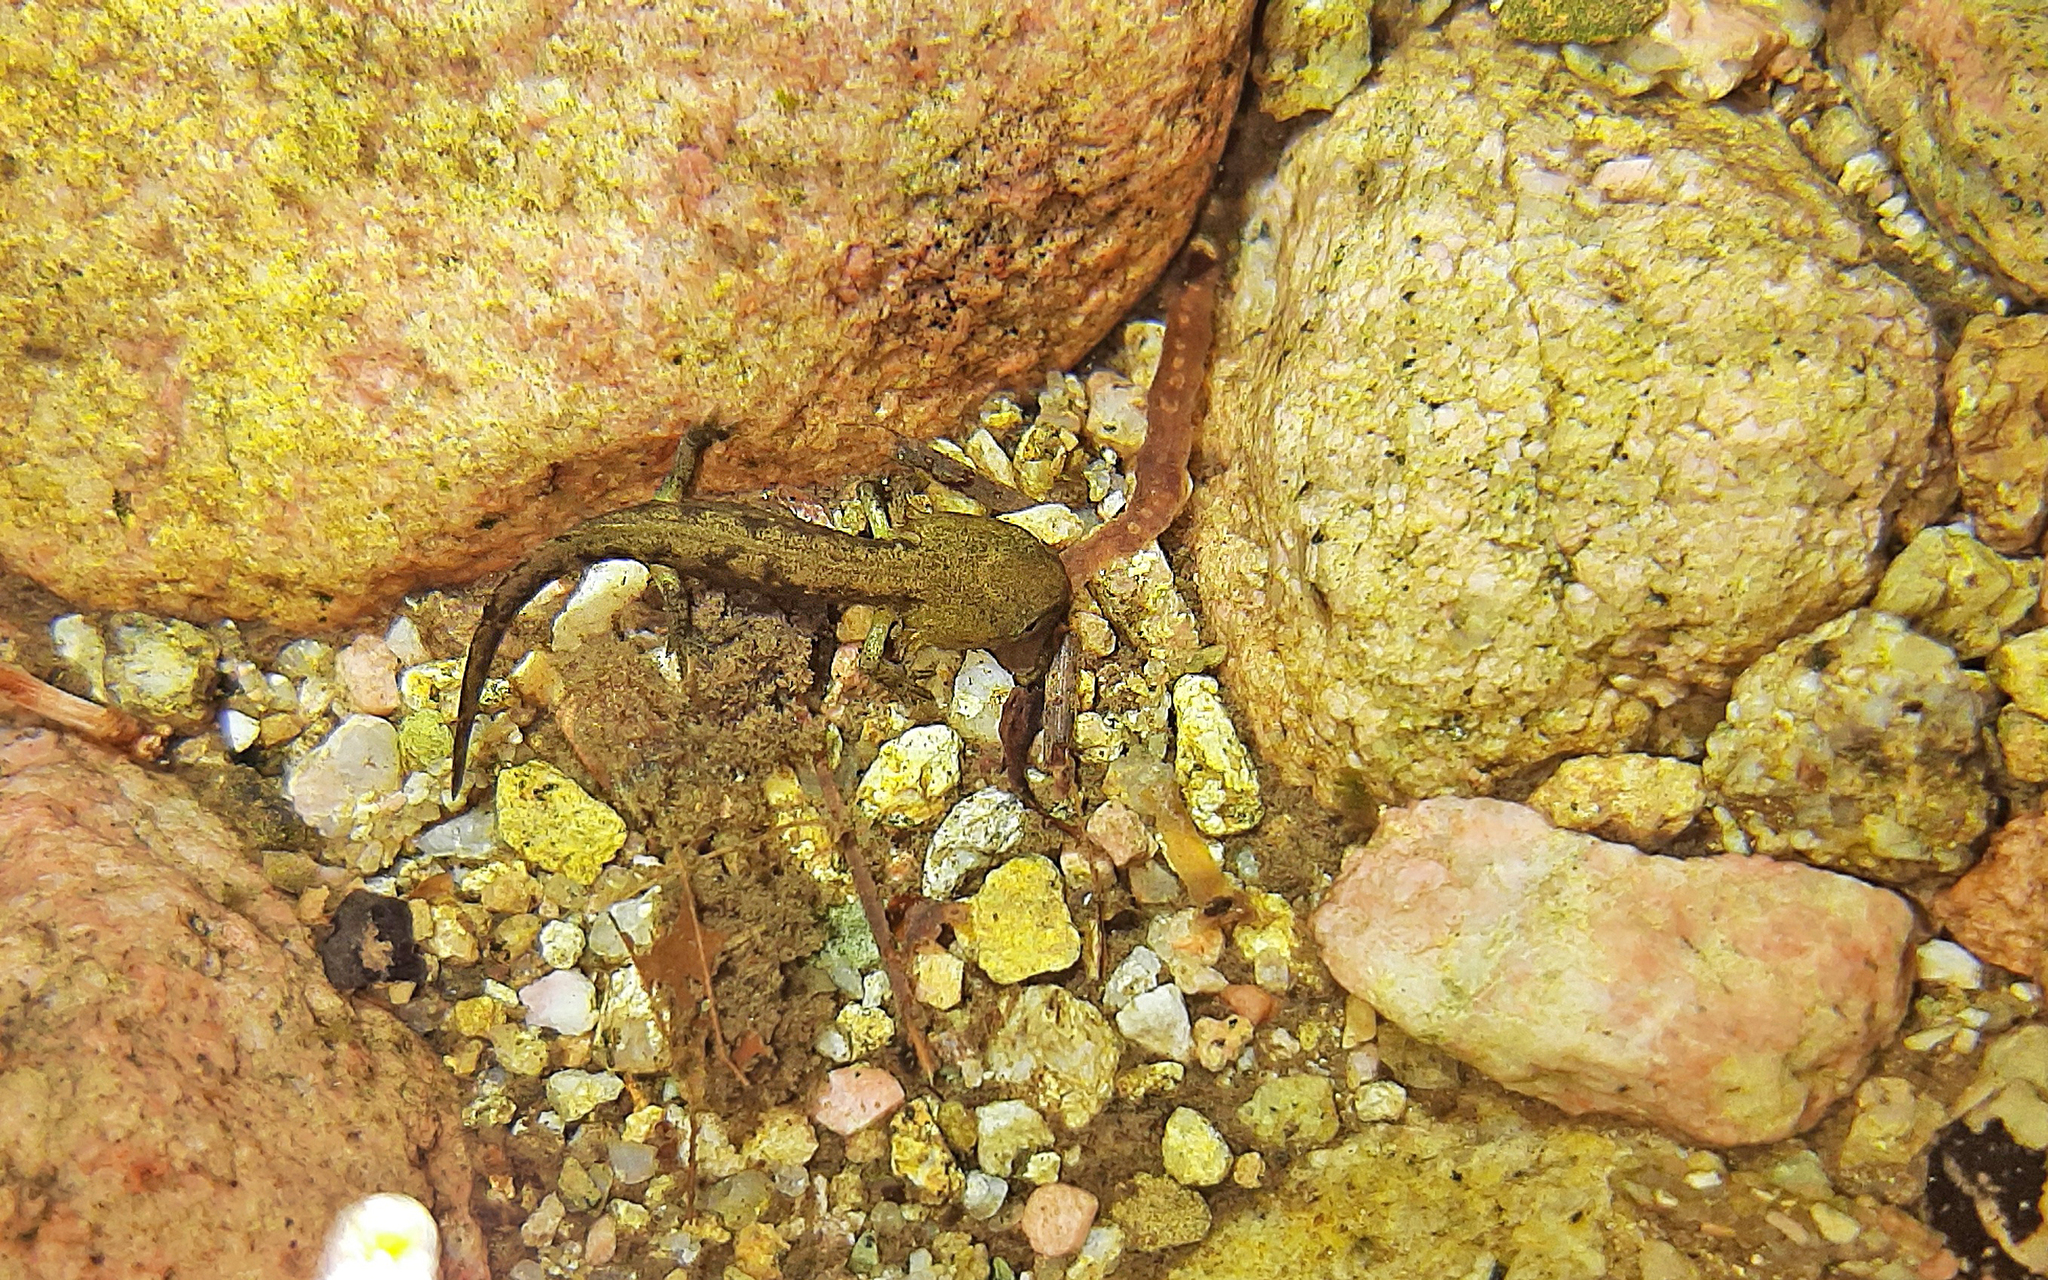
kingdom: Animalia
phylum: Chordata
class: Amphibia
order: Caudata
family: Salamandridae
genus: Salamandra
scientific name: Salamandra corsica
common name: Corsican fire salamander
